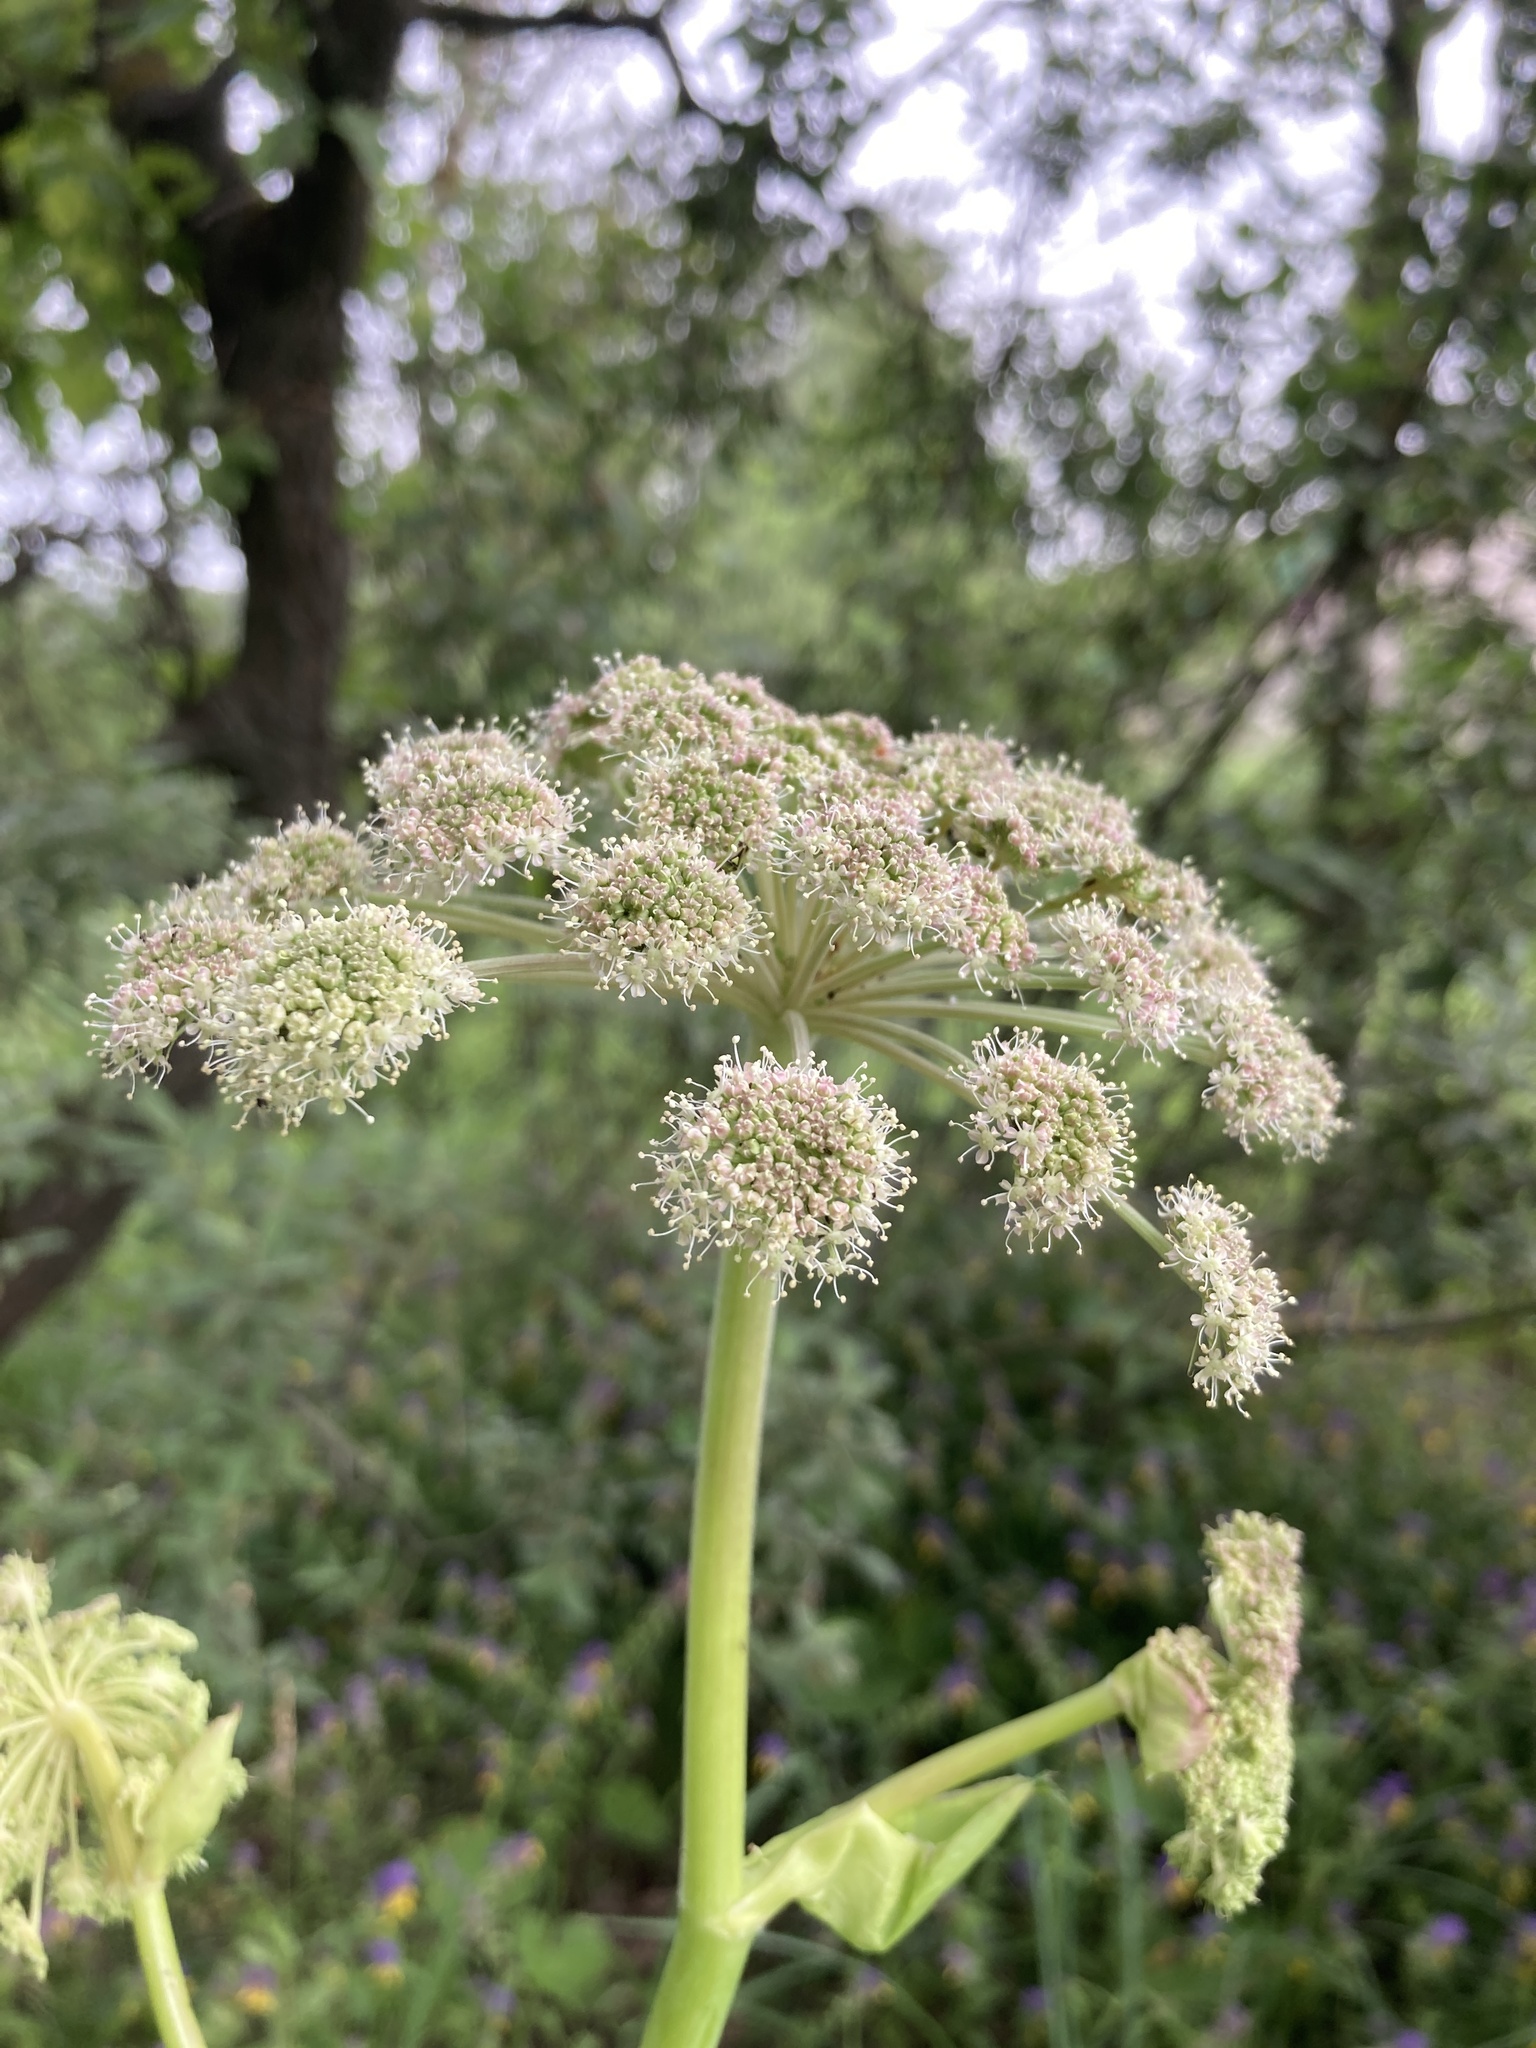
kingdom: Plantae
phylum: Tracheophyta
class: Magnoliopsida
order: Apiales
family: Apiaceae
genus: Angelica
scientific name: Angelica sylvestris
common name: Wild angelica
